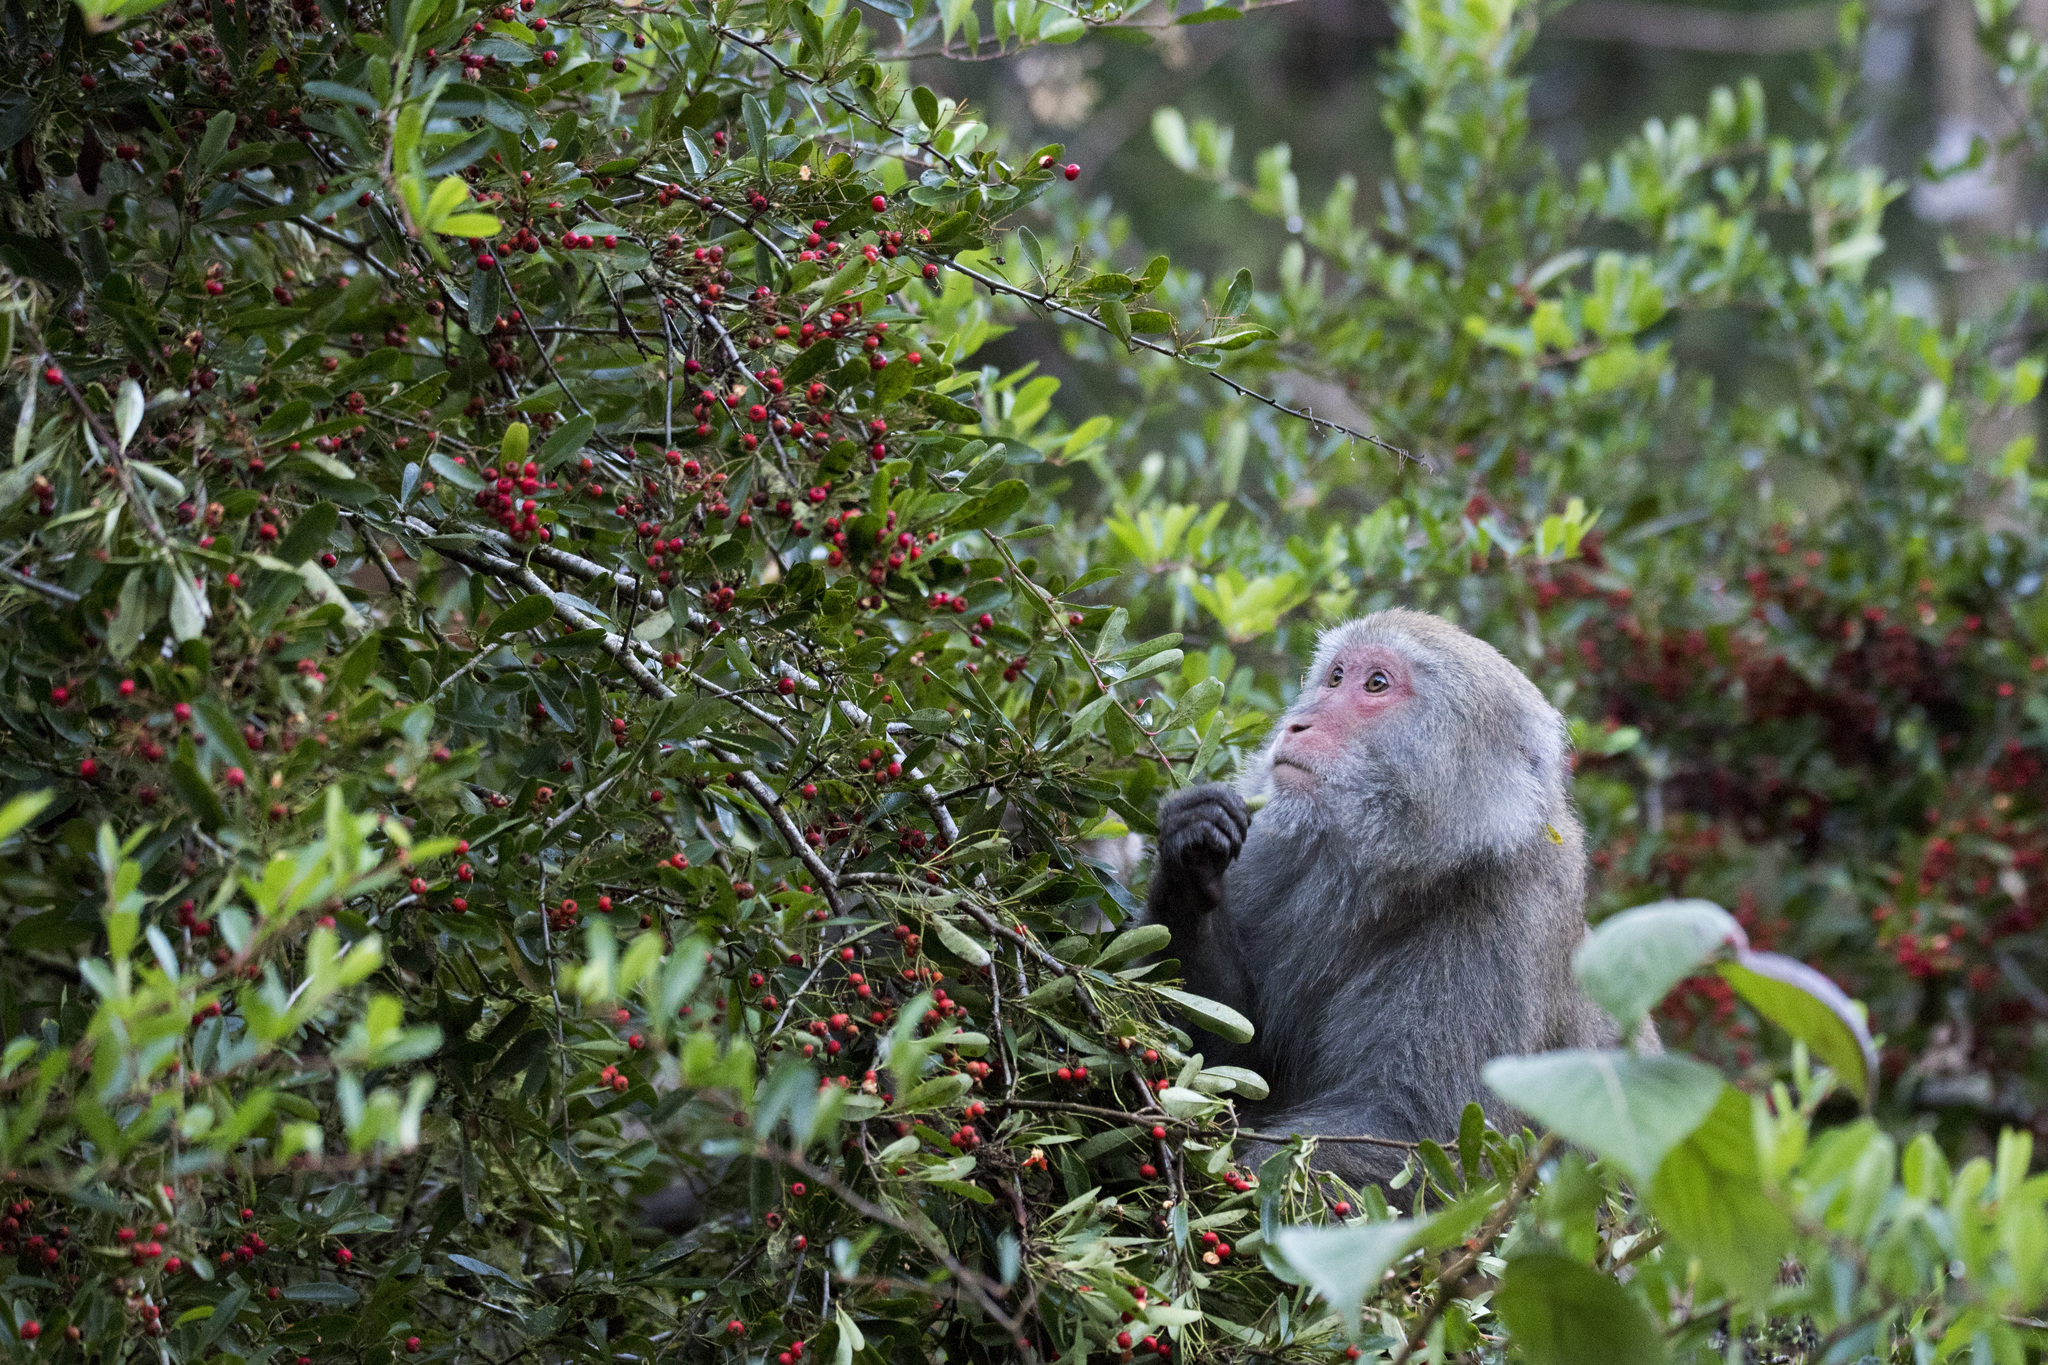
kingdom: Animalia
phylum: Chordata
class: Mammalia
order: Primates
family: Cercopithecidae
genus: Macaca
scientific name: Macaca cyclopis
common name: Formosan rock macaque
